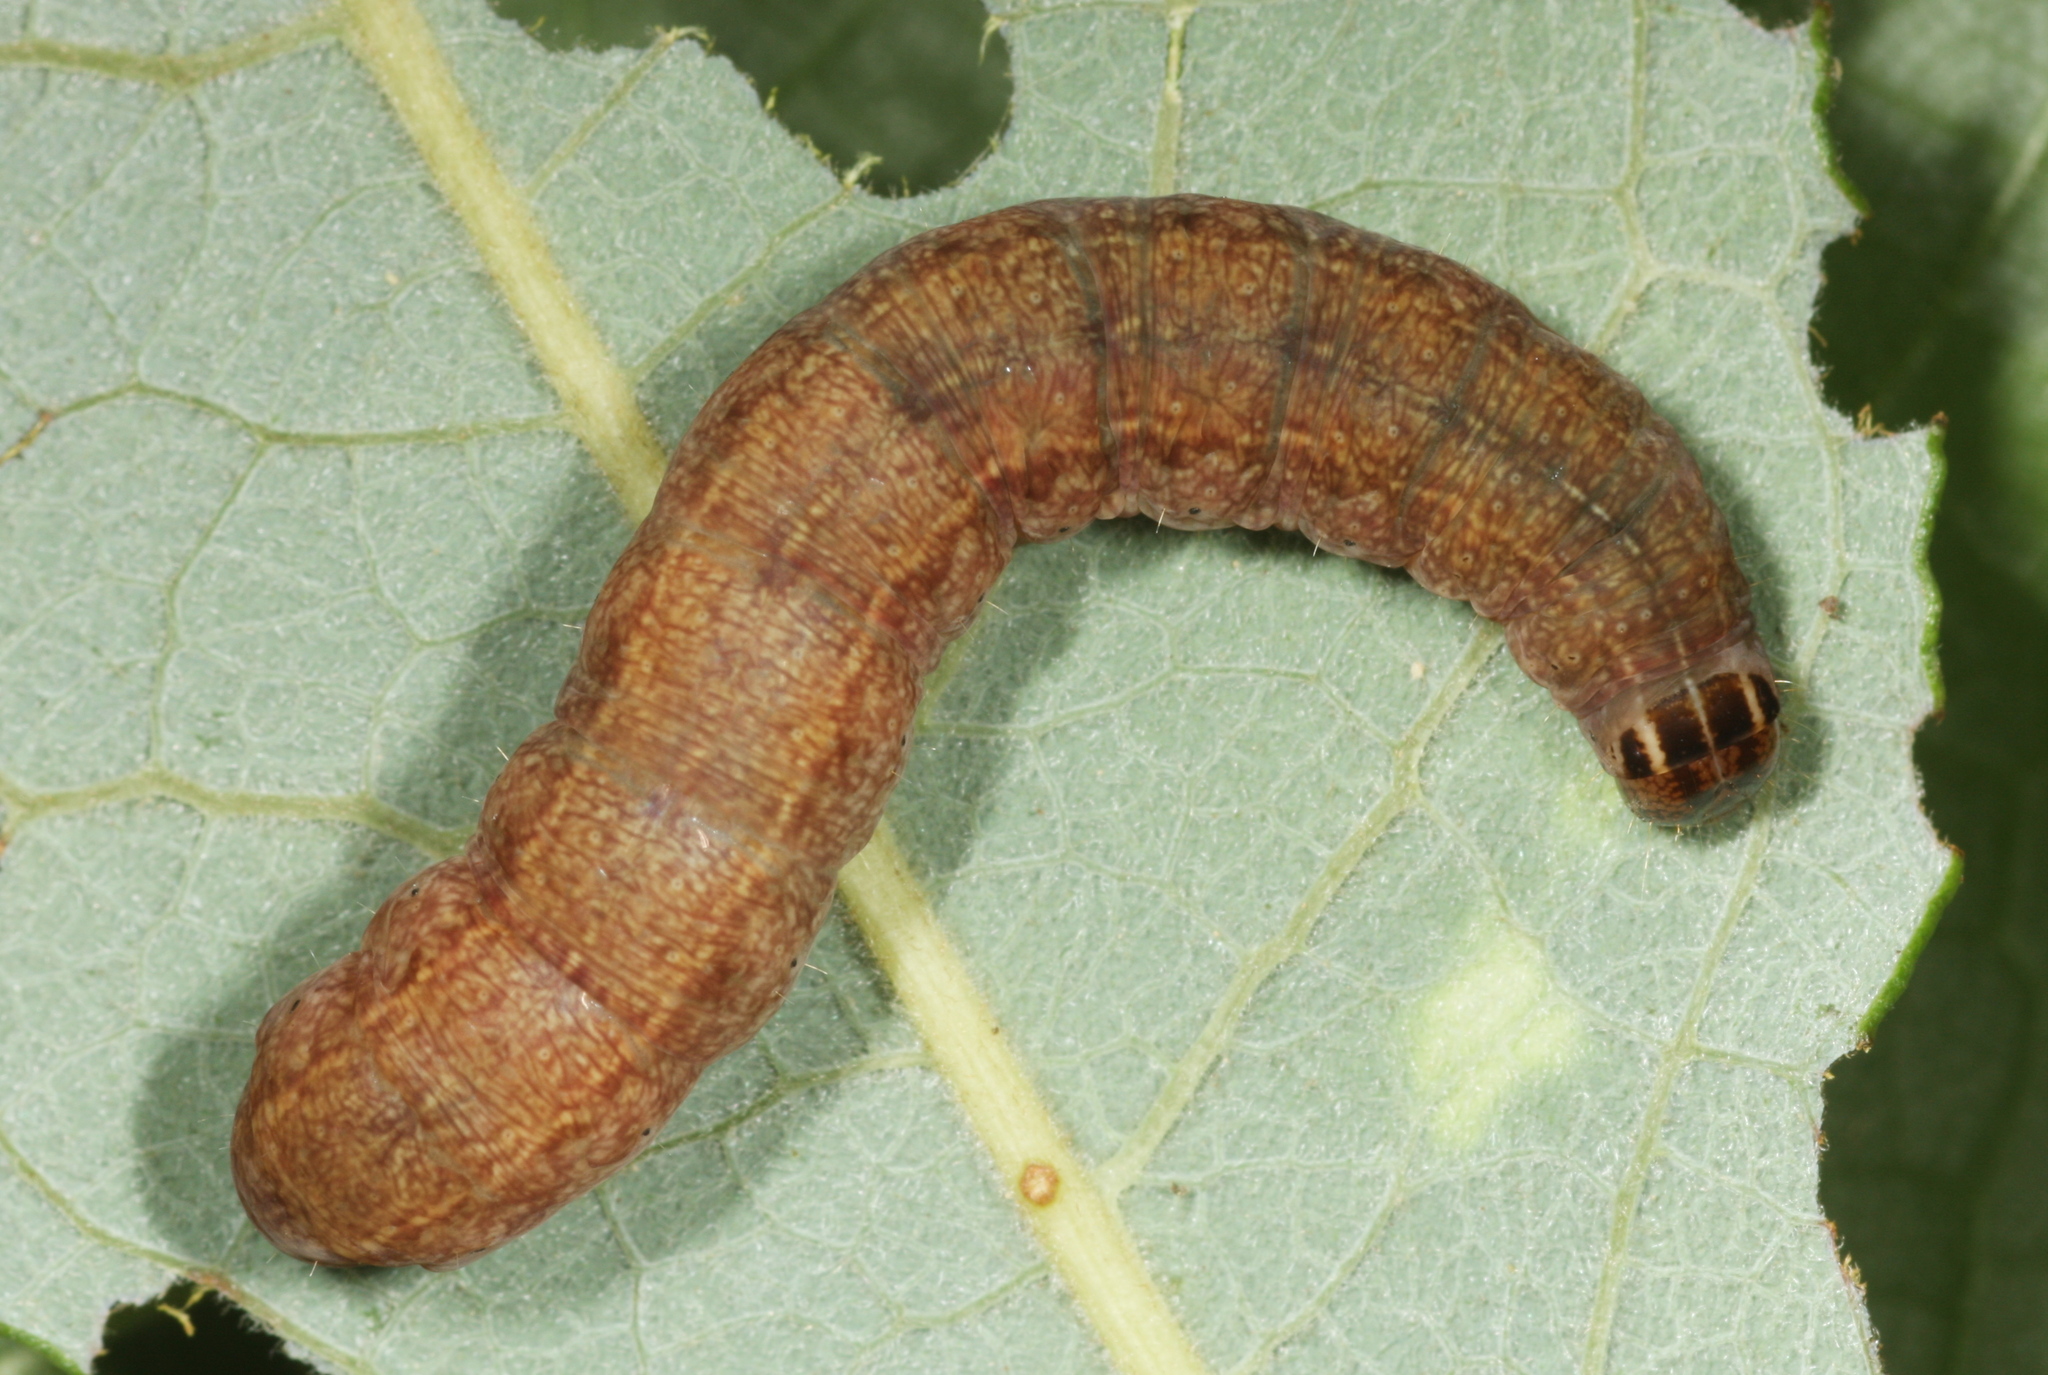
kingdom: Animalia
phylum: Arthropoda
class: Insecta
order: Lepidoptera
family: Noctuidae
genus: Conistra
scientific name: Conistra vaccinii
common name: Chestnut
